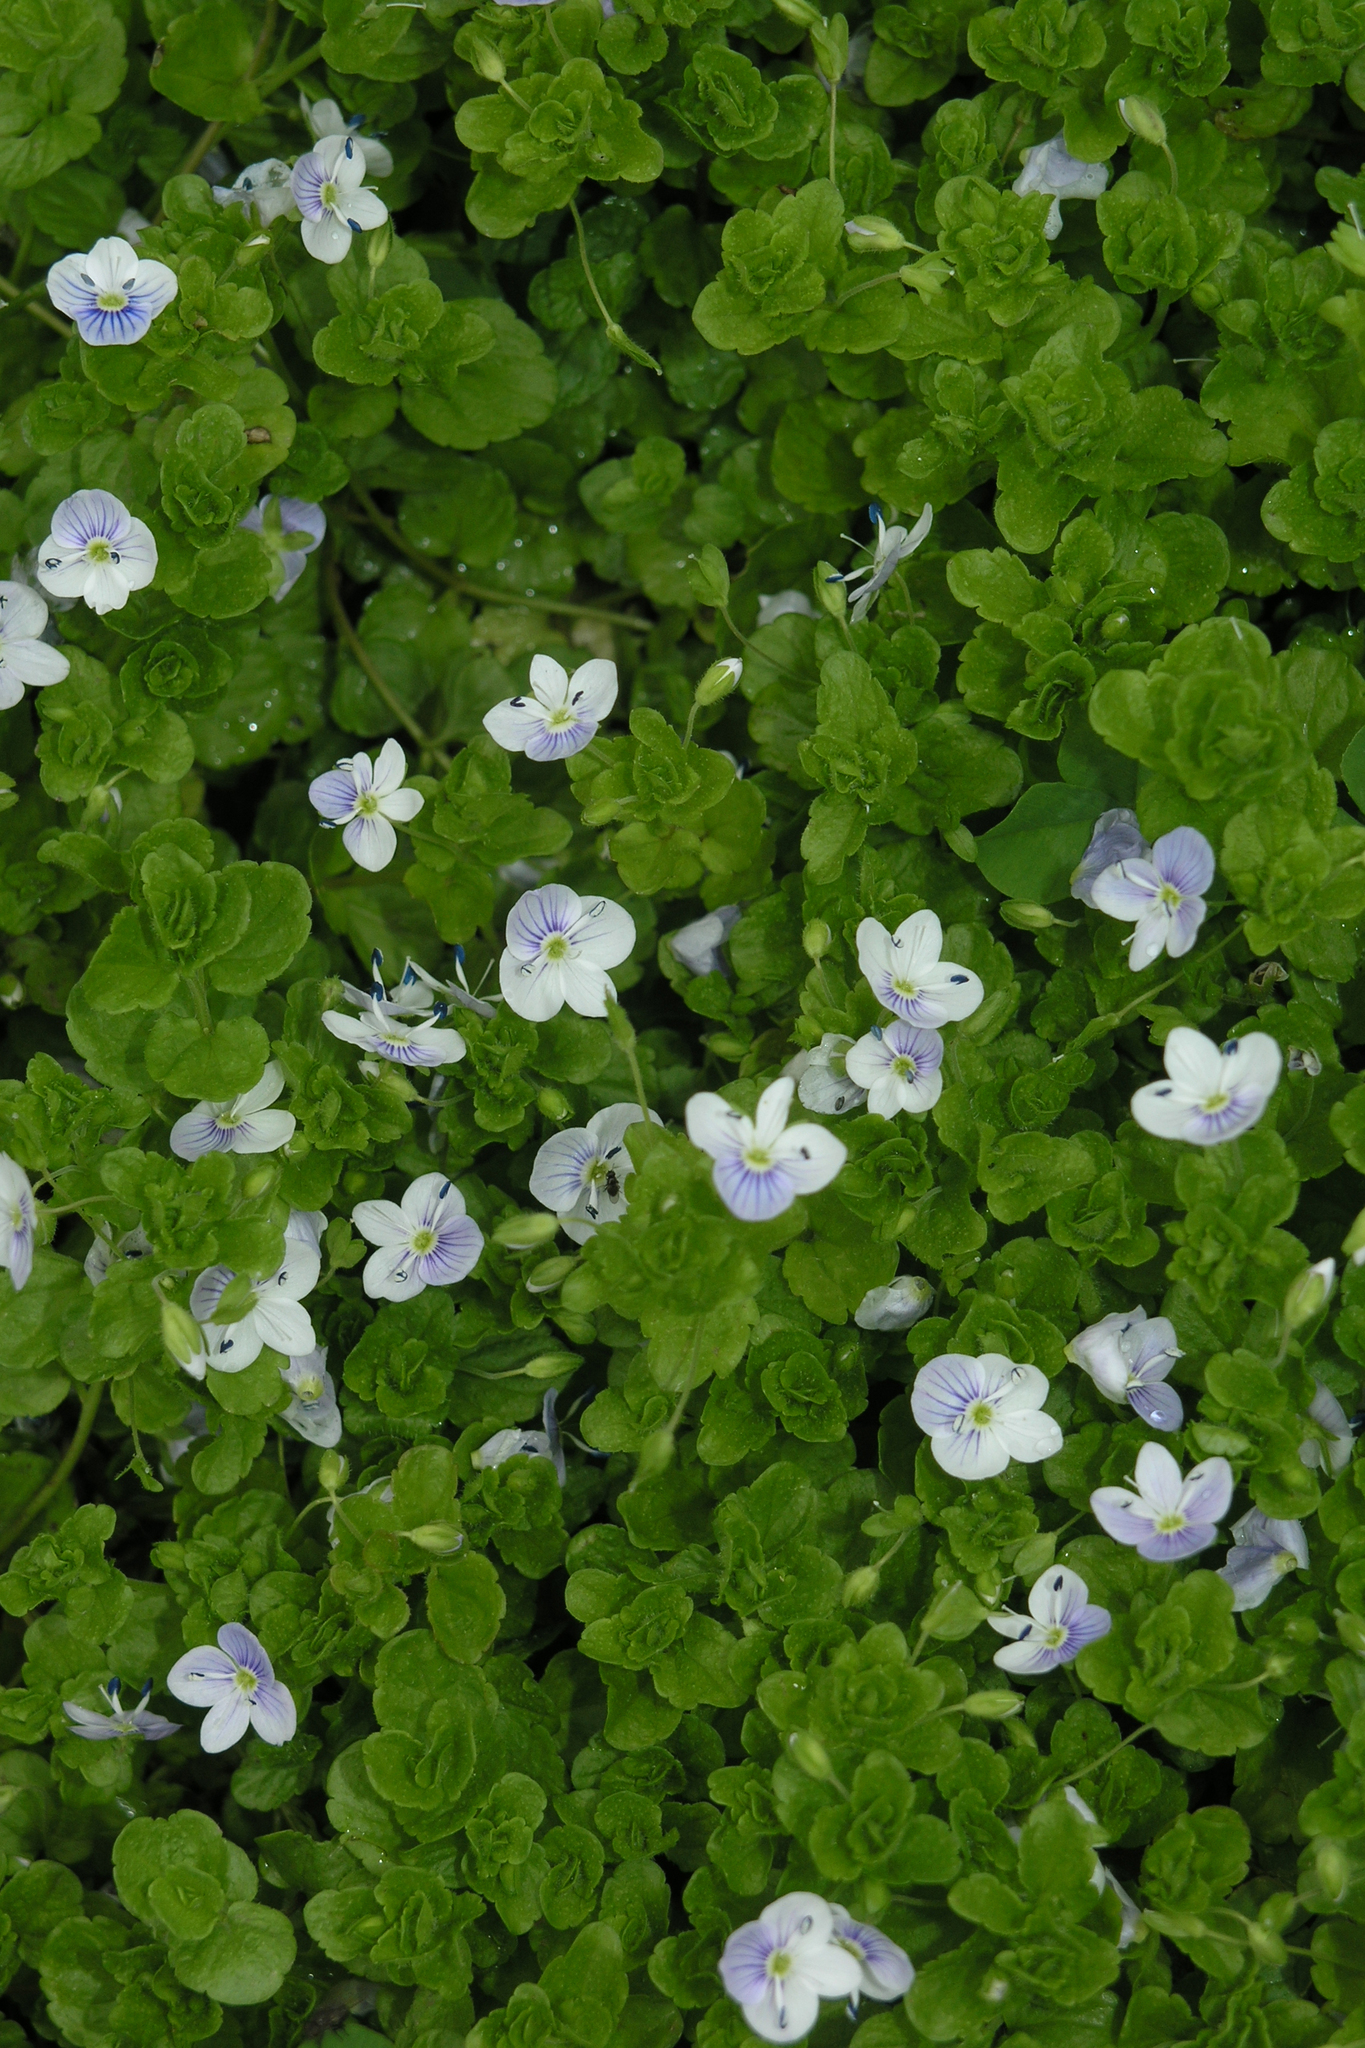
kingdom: Plantae
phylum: Tracheophyta
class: Magnoliopsida
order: Lamiales
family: Plantaginaceae
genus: Veronica
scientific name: Veronica filiformis
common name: Slender speedwell
